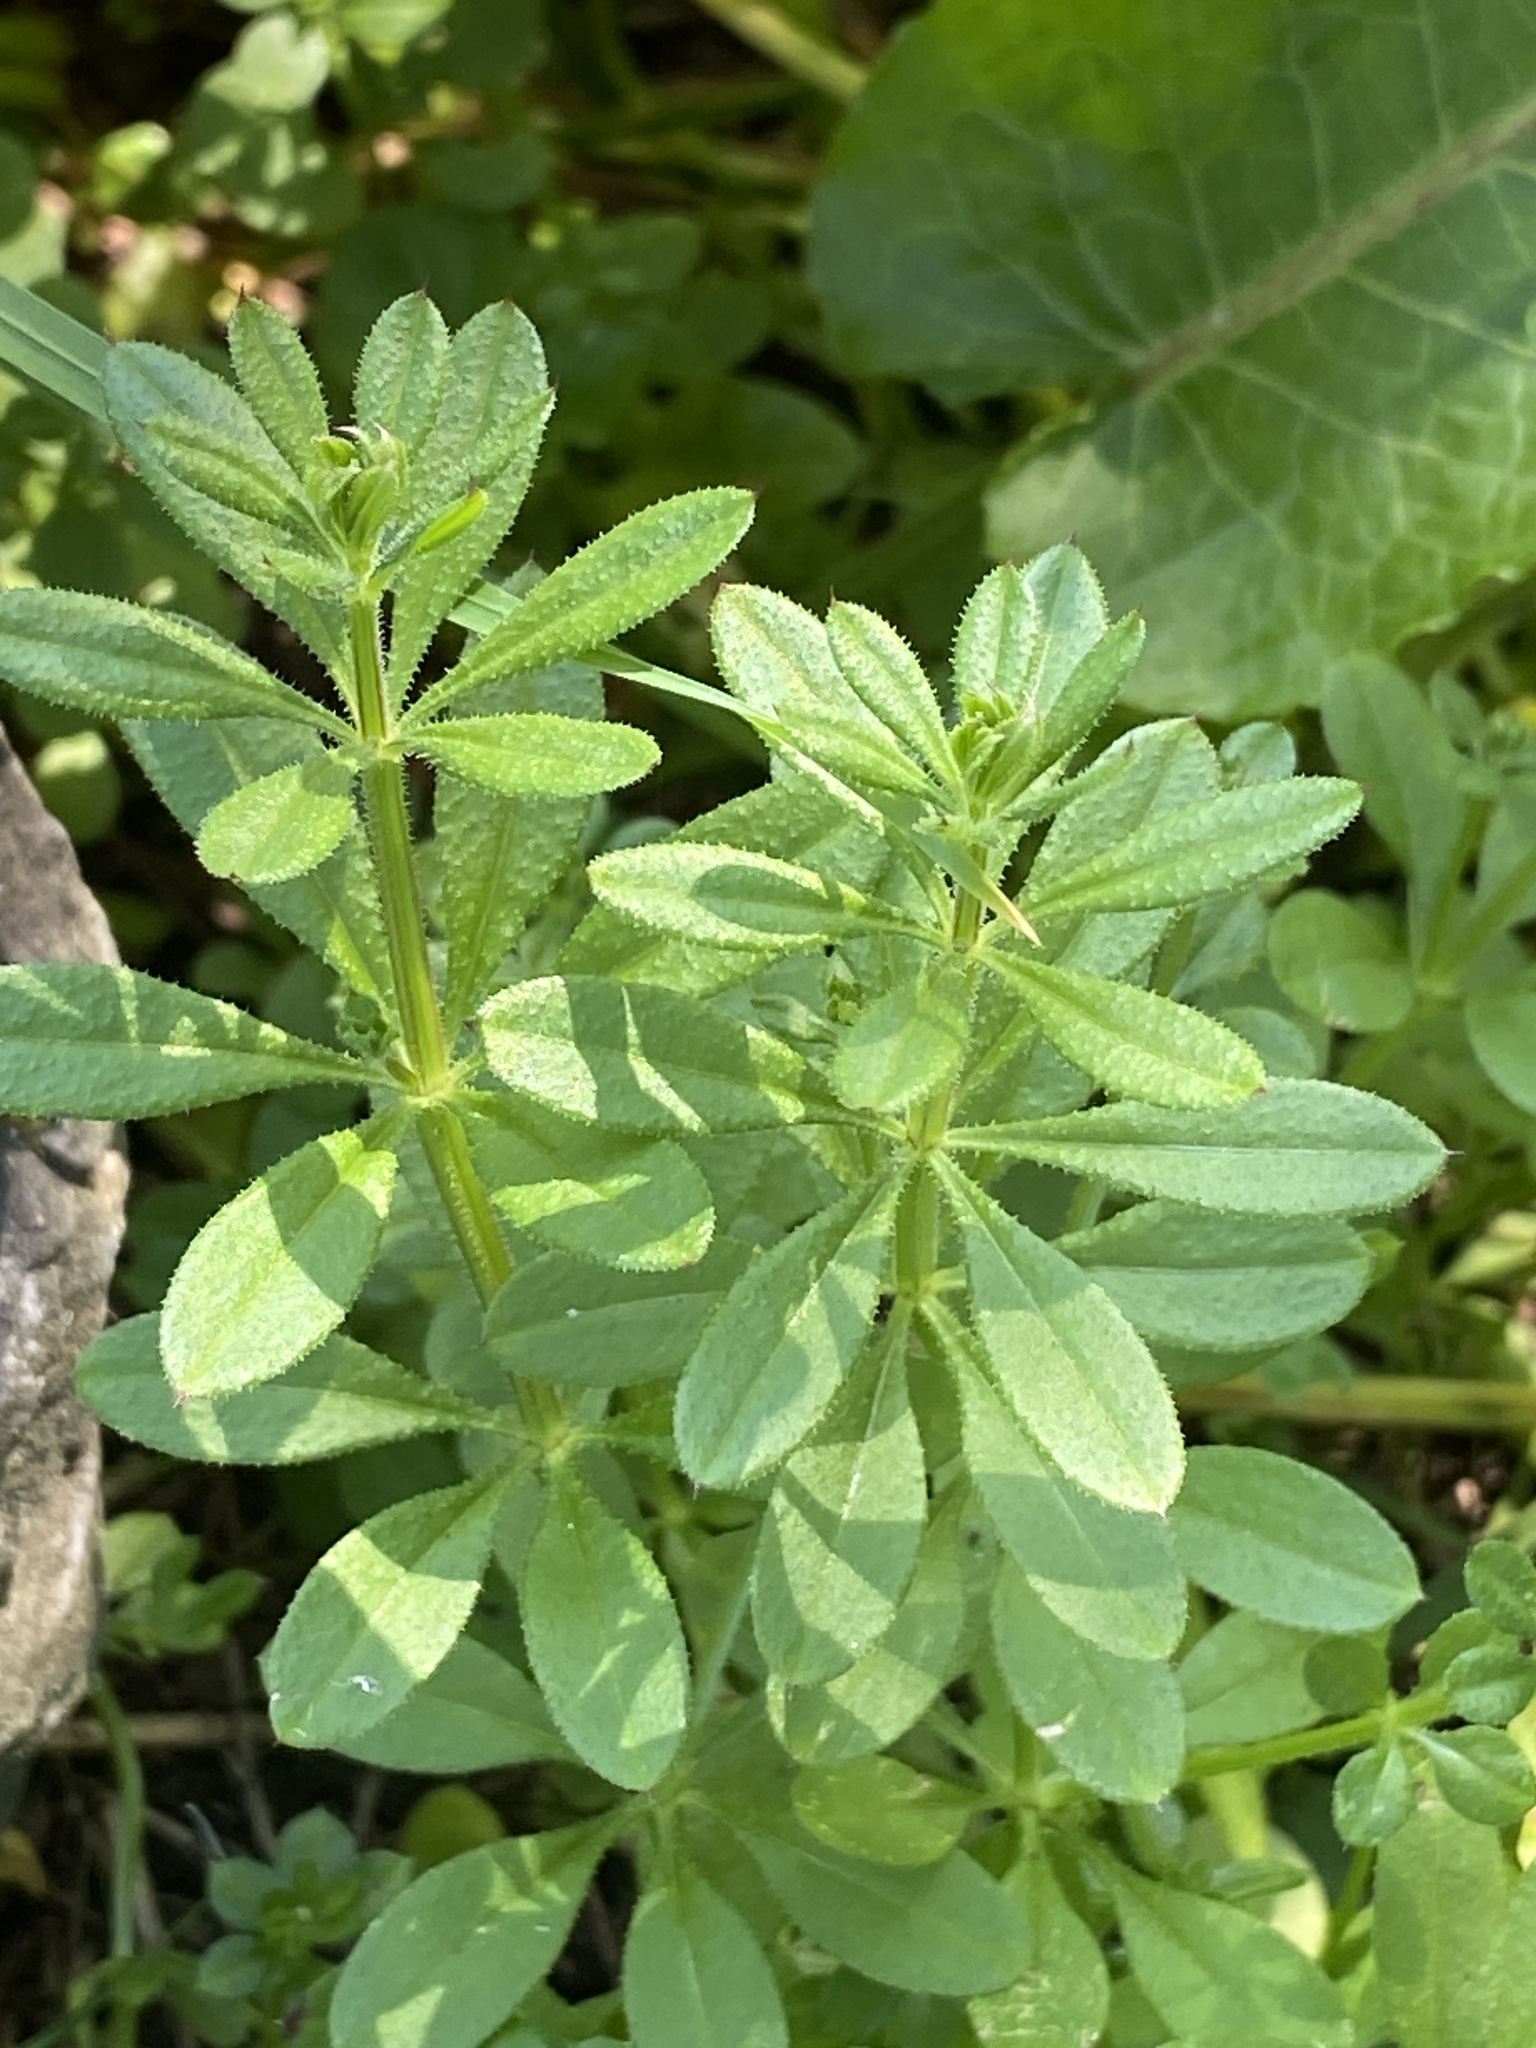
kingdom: Plantae
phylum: Tracheophyta
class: Magnoliopsida
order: Gentianales
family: Rubiaceae
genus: Galium
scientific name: Galium aparine
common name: Cleavers
